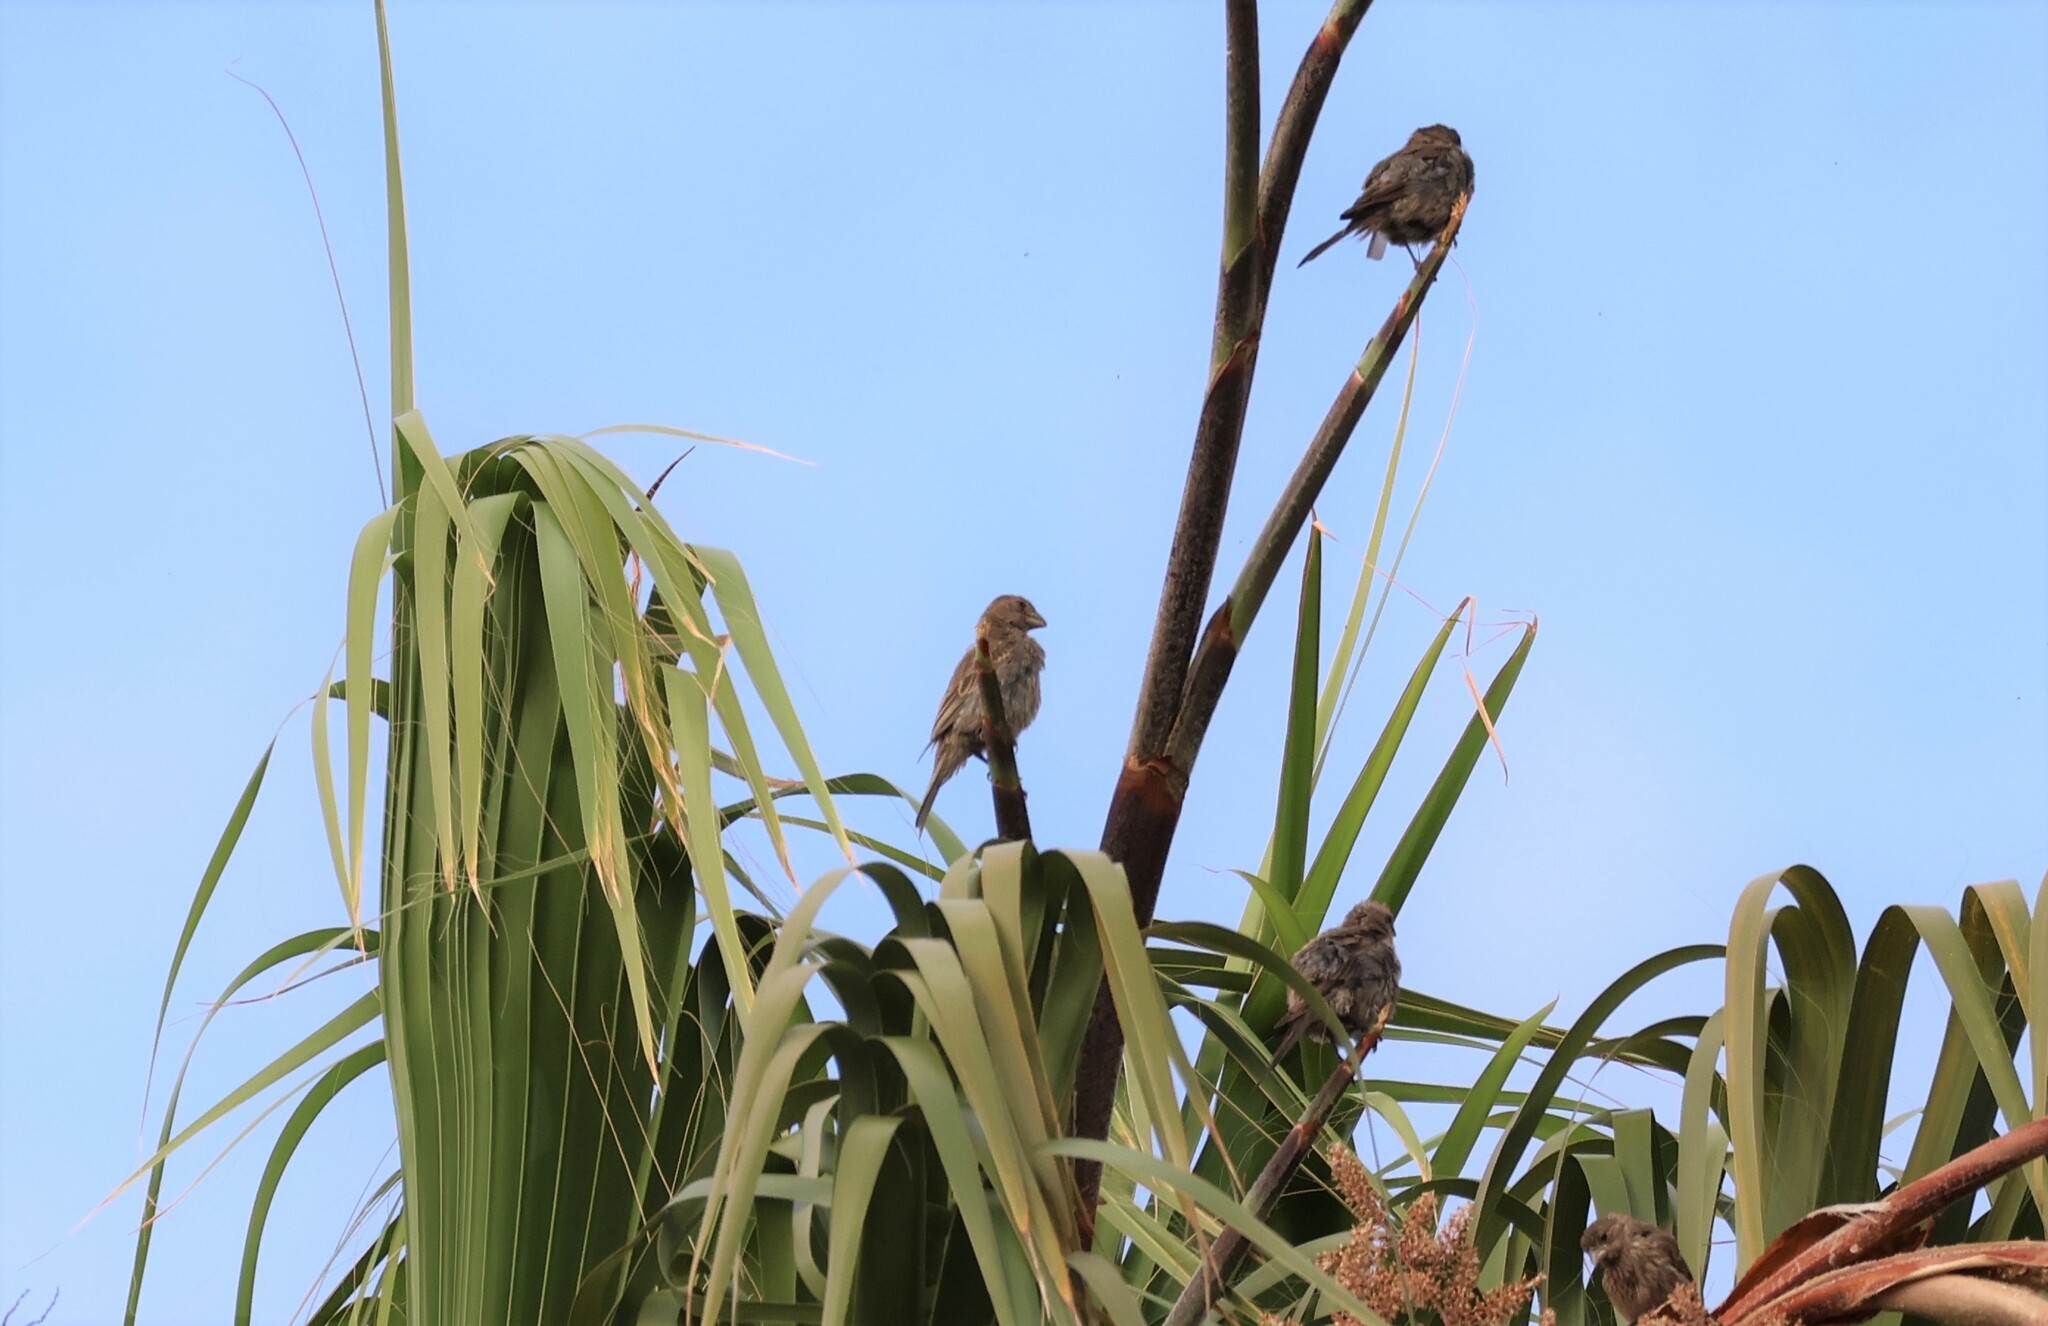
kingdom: Animalia
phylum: Chordata
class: Aves
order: Passeriformes
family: Fringillidae
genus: Haemorhous
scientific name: Haemorhous mexicanus
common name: House finch
